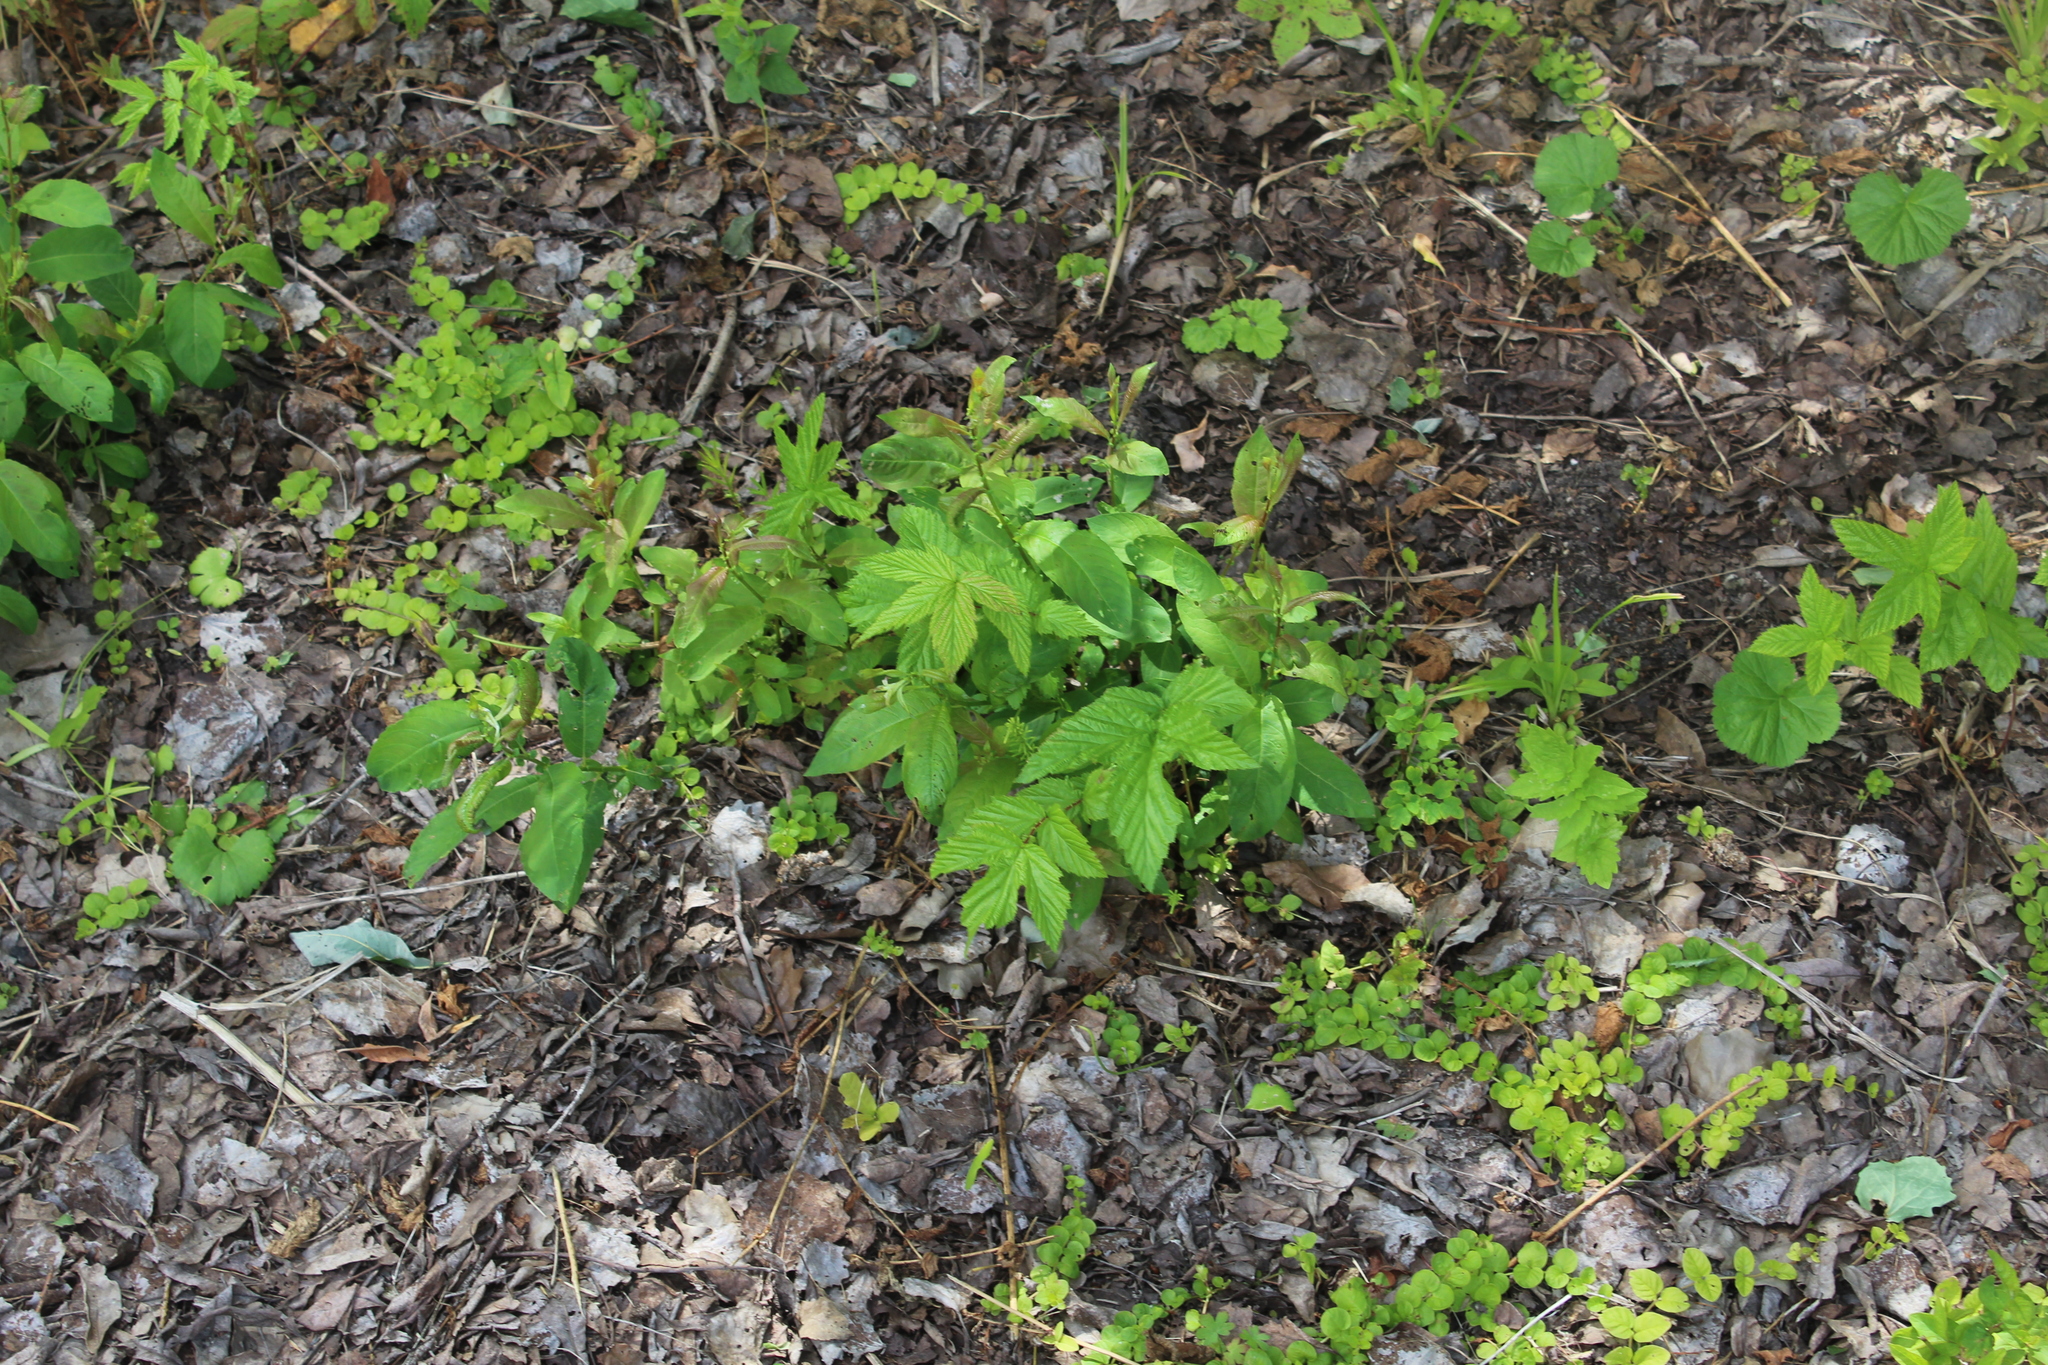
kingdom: Plantae
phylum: Tracheophyta
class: Magnoliopsida
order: Rosales
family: Rosaceae
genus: Filipendula
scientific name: Filipendula ulmaria
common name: Meadowsweet
